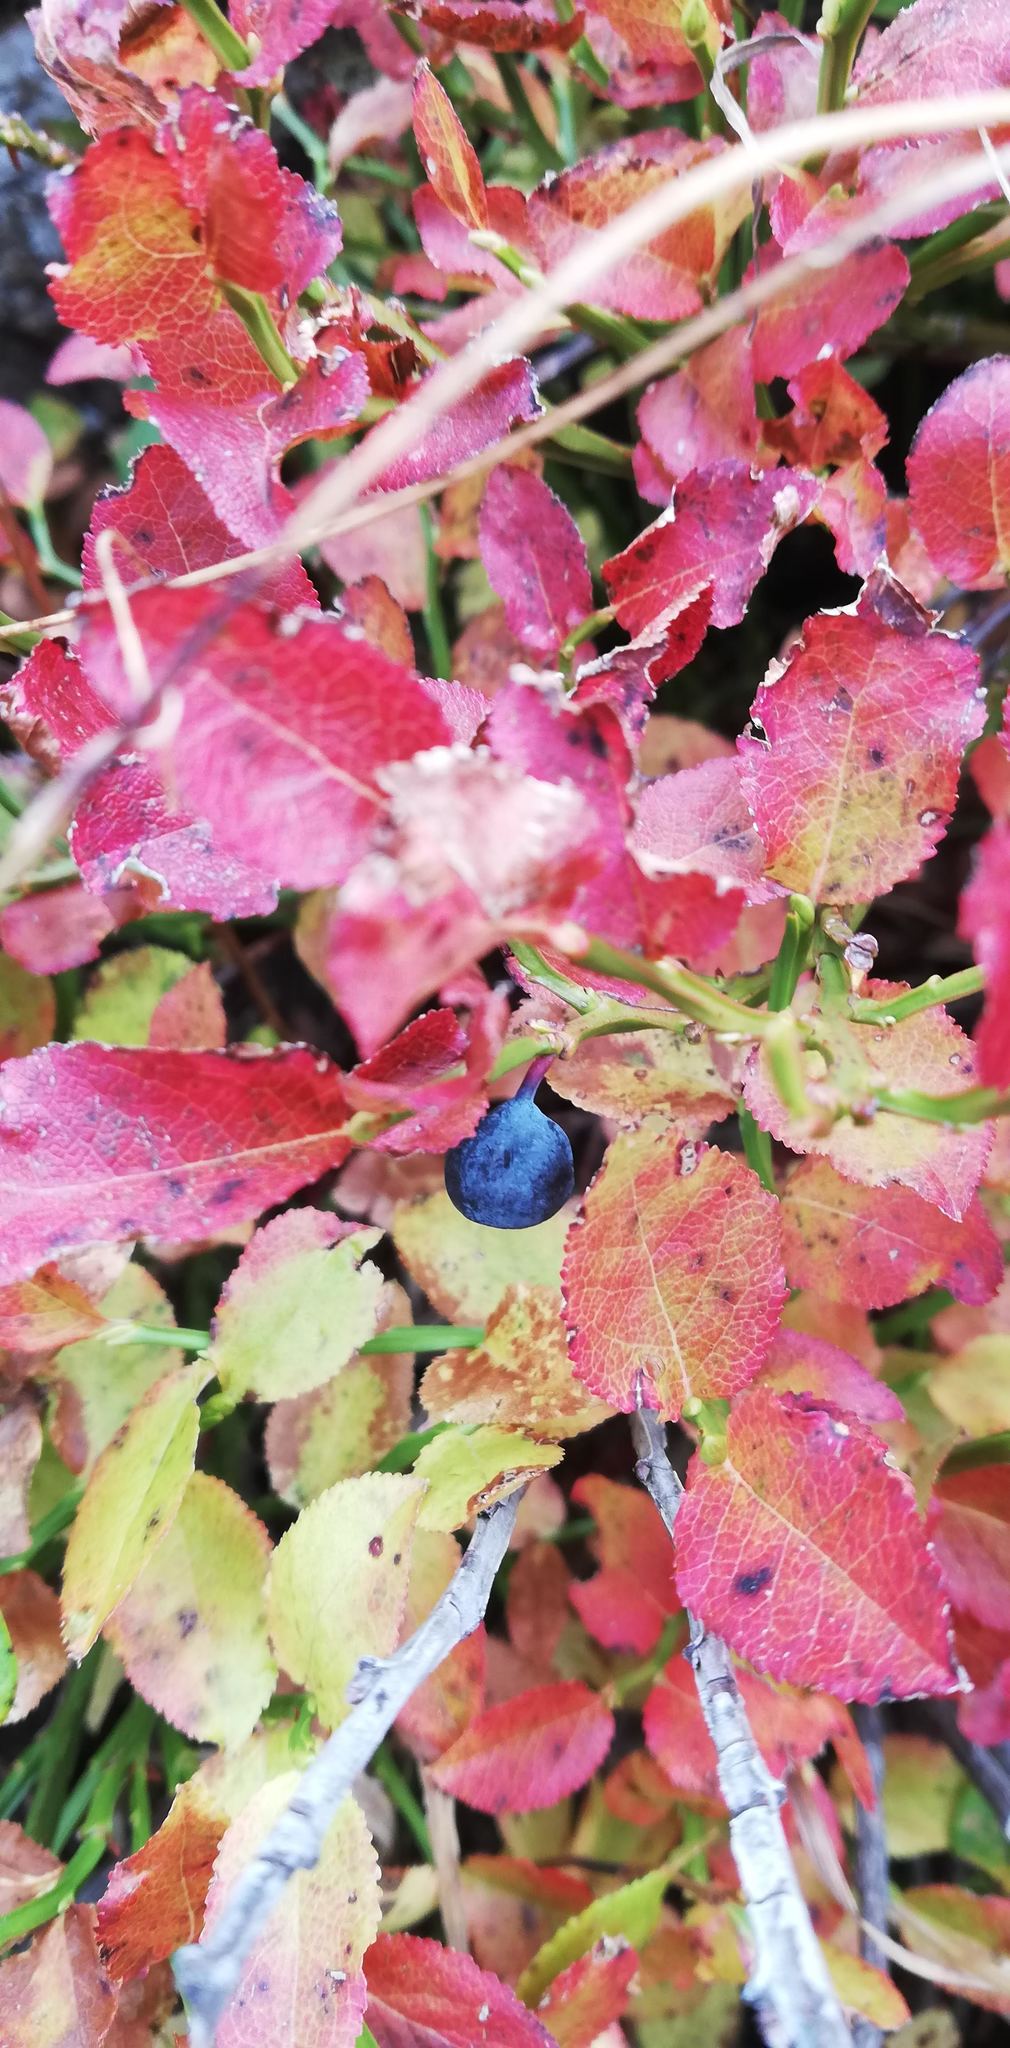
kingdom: Plantae
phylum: Tracheophyta
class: Magnoliopsida
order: Ericales
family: Ericaceae
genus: Vaccinium
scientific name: Vaccinium myrtillus
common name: Bilberry
